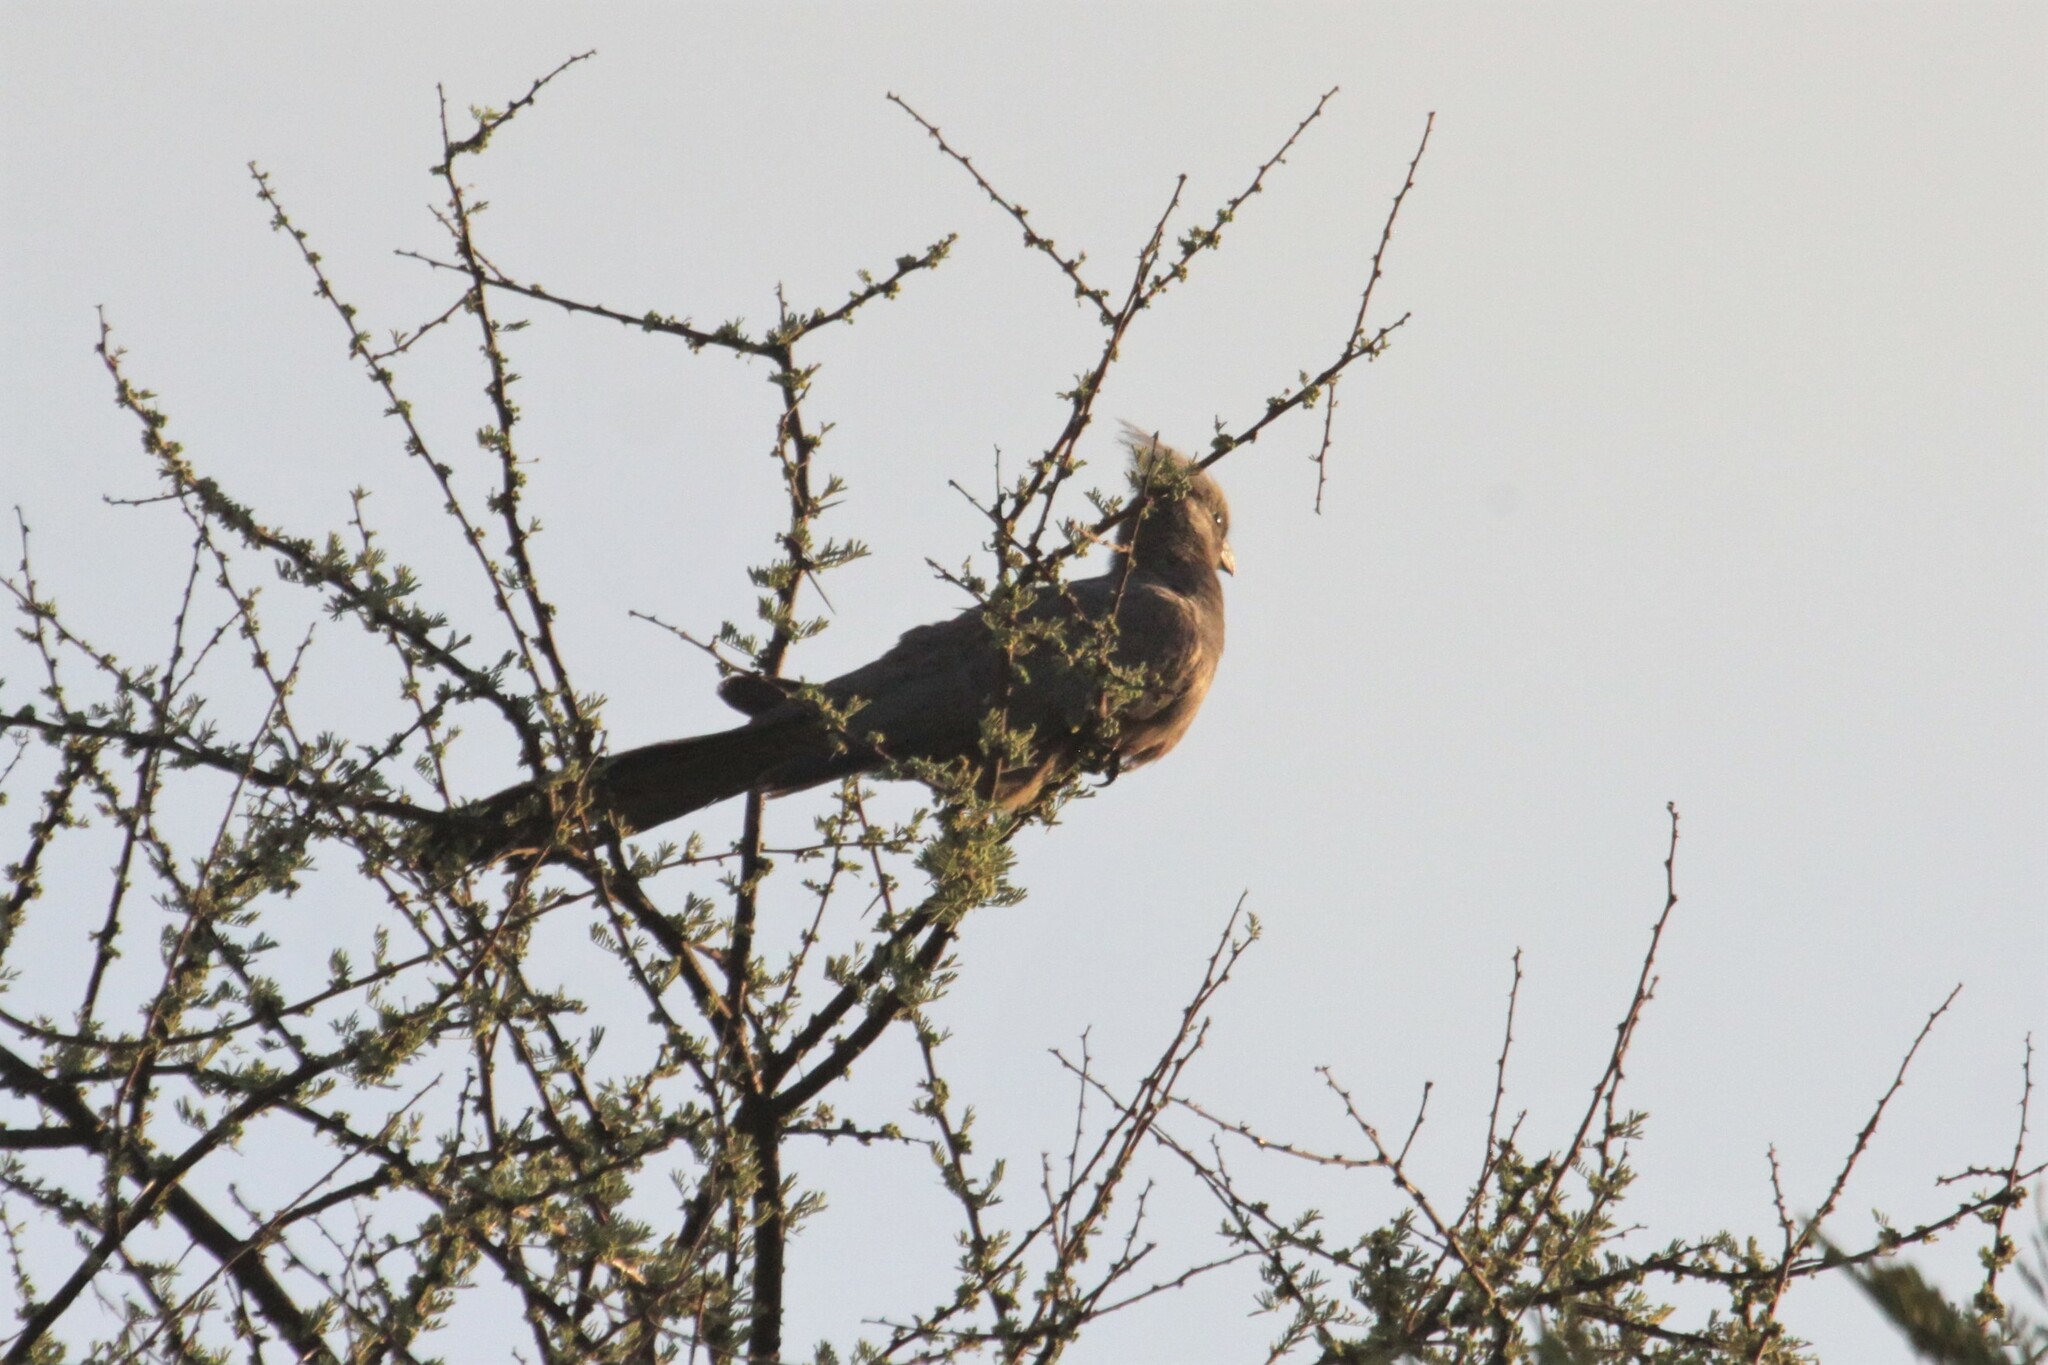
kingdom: Animalia
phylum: Chordata
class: Aves
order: Musophagiformes
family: Musophagidae
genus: Corythaixoides
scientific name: Corythaixoides concolor
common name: Grey go-away-bird
